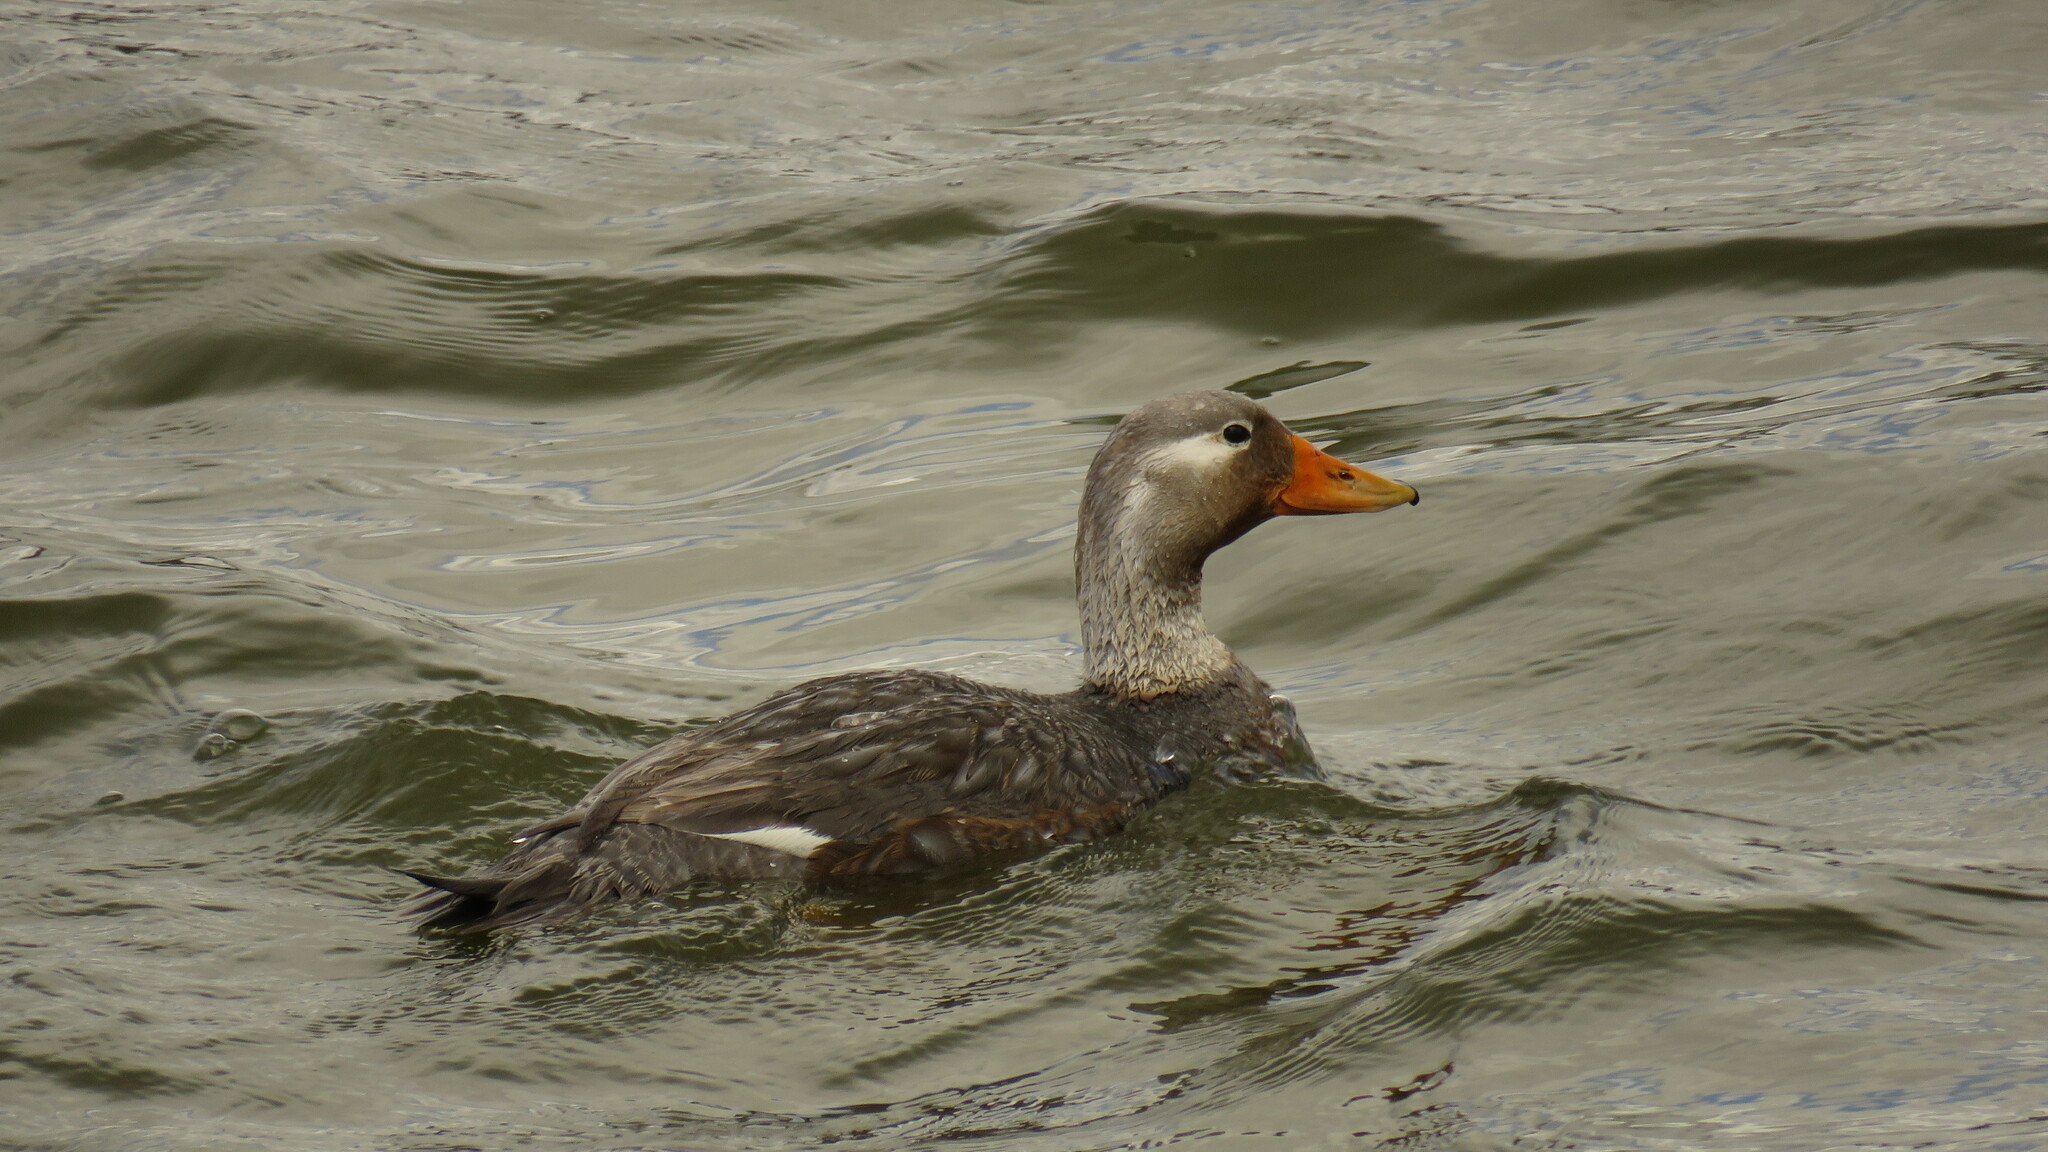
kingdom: Animalia
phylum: Chordata
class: Aves
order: Anseriformes
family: Anatidae
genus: Tachyeres
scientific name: Tachyeres patachonicus
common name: Flying steamer duck
